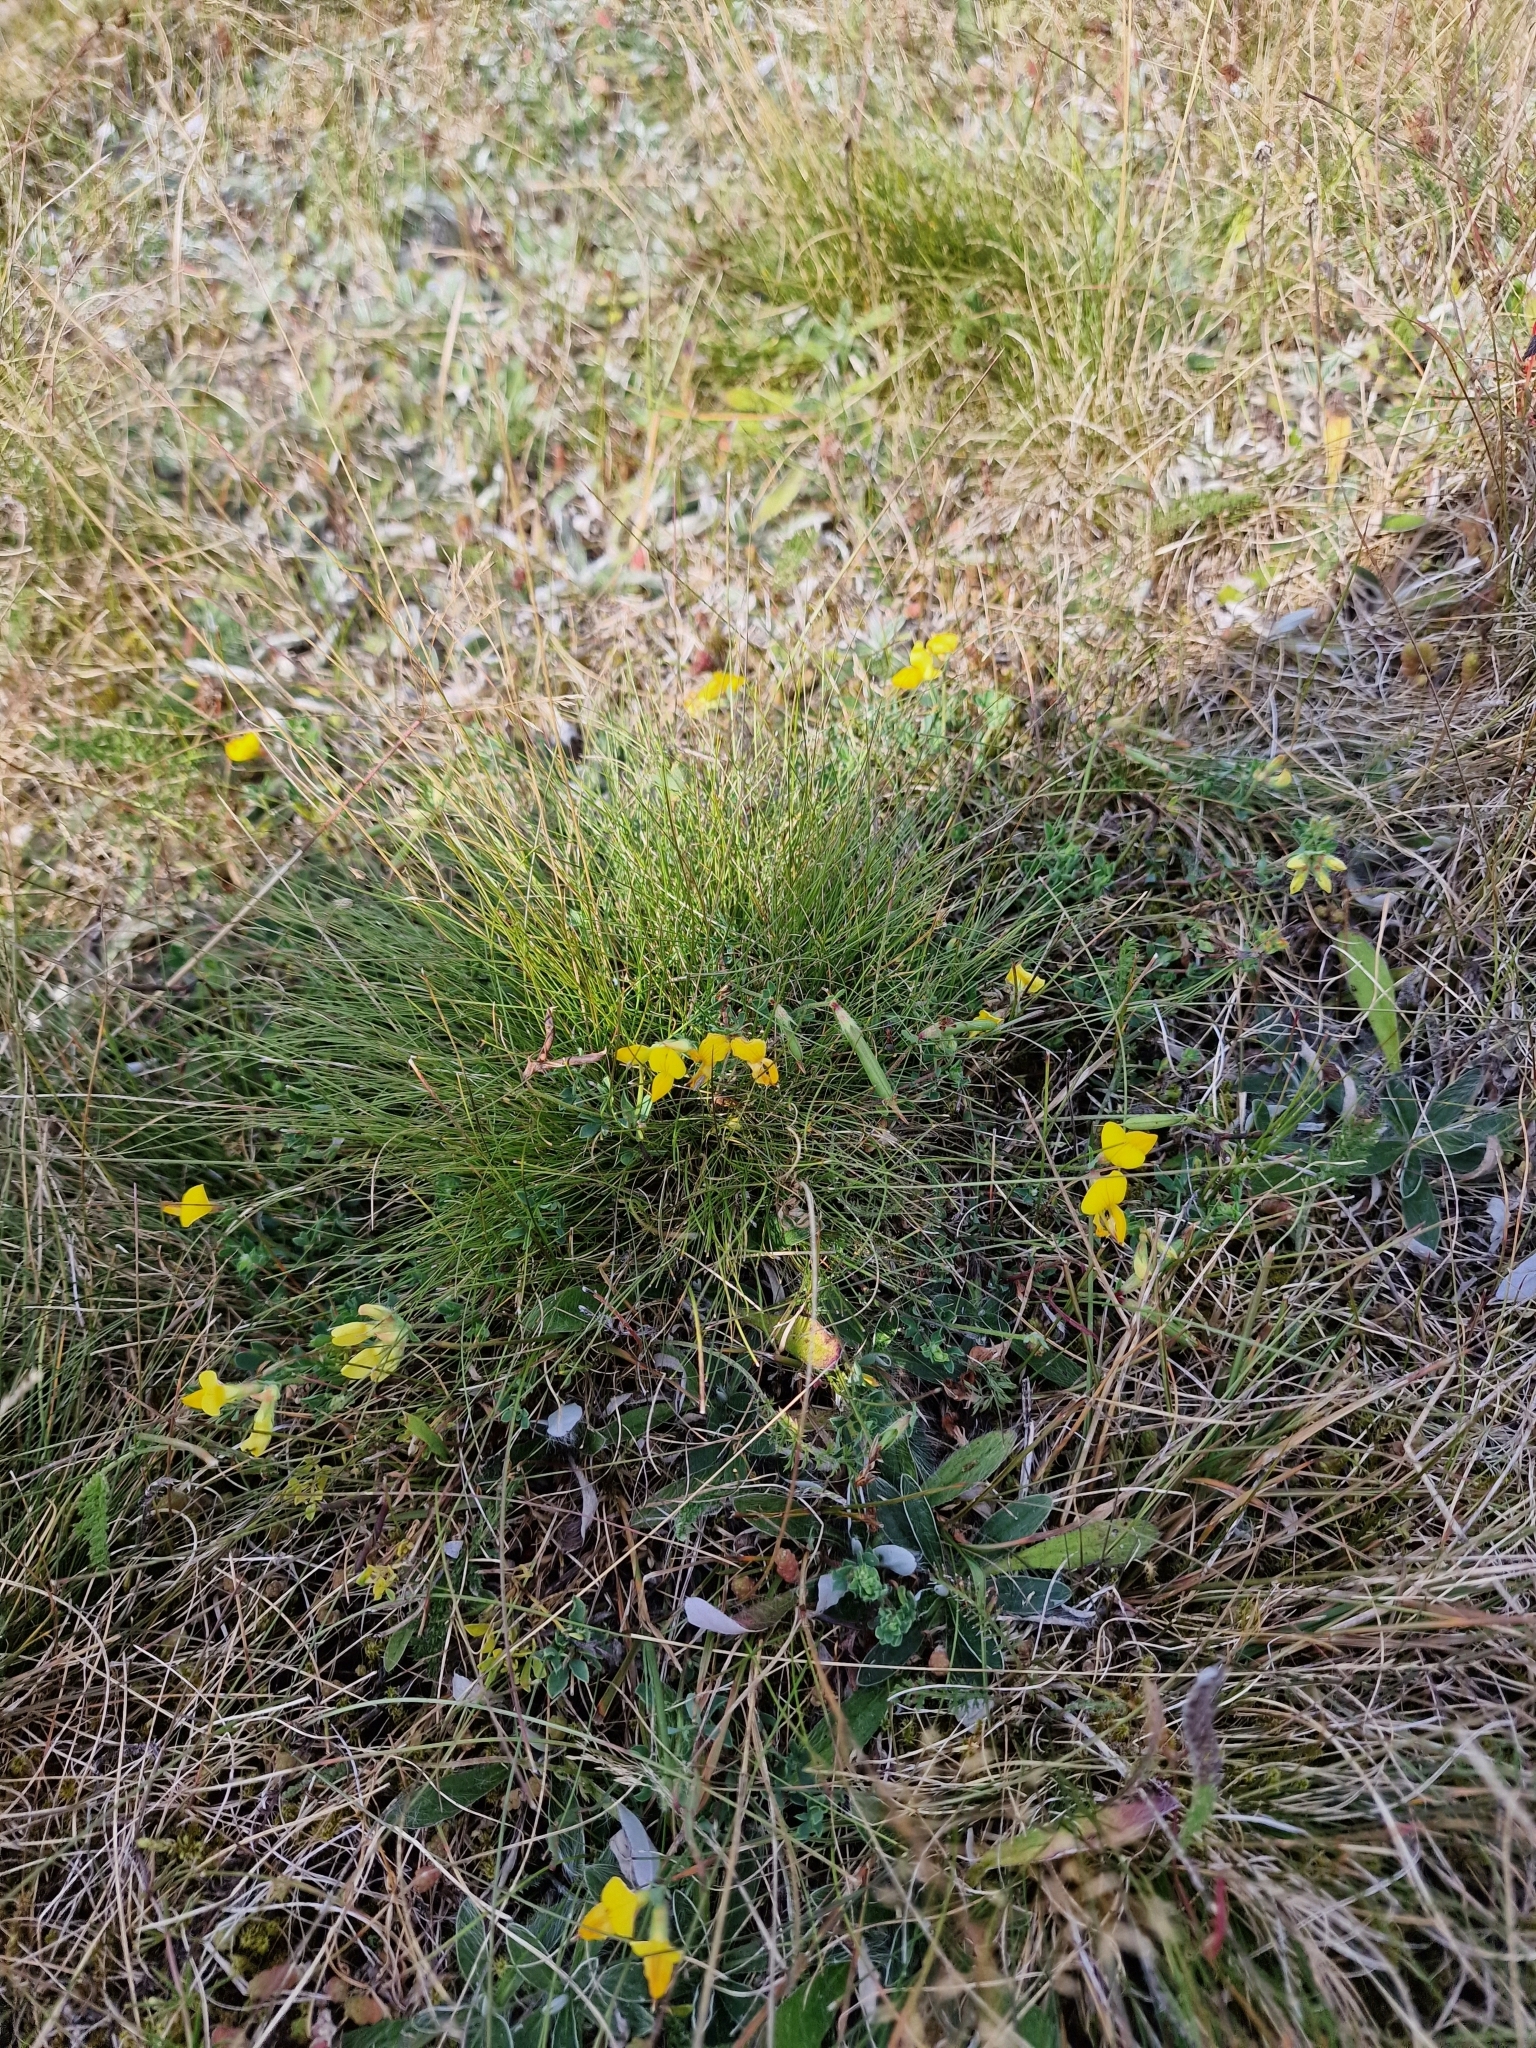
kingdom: Plantae
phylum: Tracheophyta
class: Magnoliopsida
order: Fabales
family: Fabaceae
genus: Lotus
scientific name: Lotus corniculatus
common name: Common bird's-foot-trefoil
